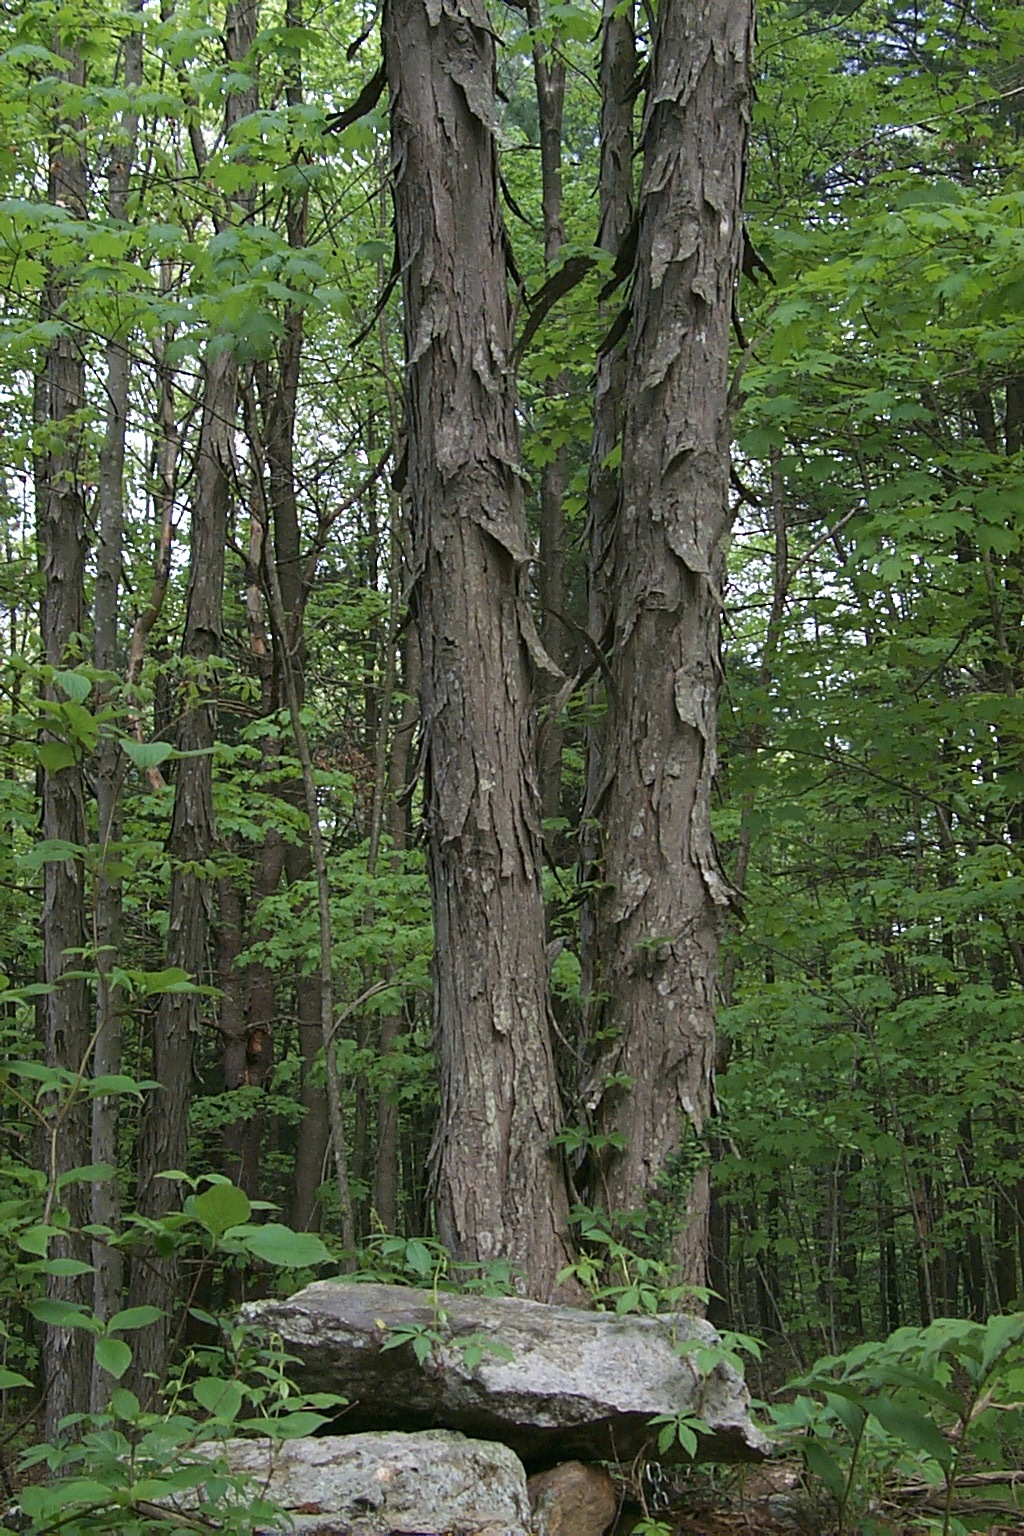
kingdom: Plantae
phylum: Tracheophyta
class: Magnoliopsida
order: Fagales
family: Juglandaceae
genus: Carya
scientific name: Carya ovata
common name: Shagbark hickory
